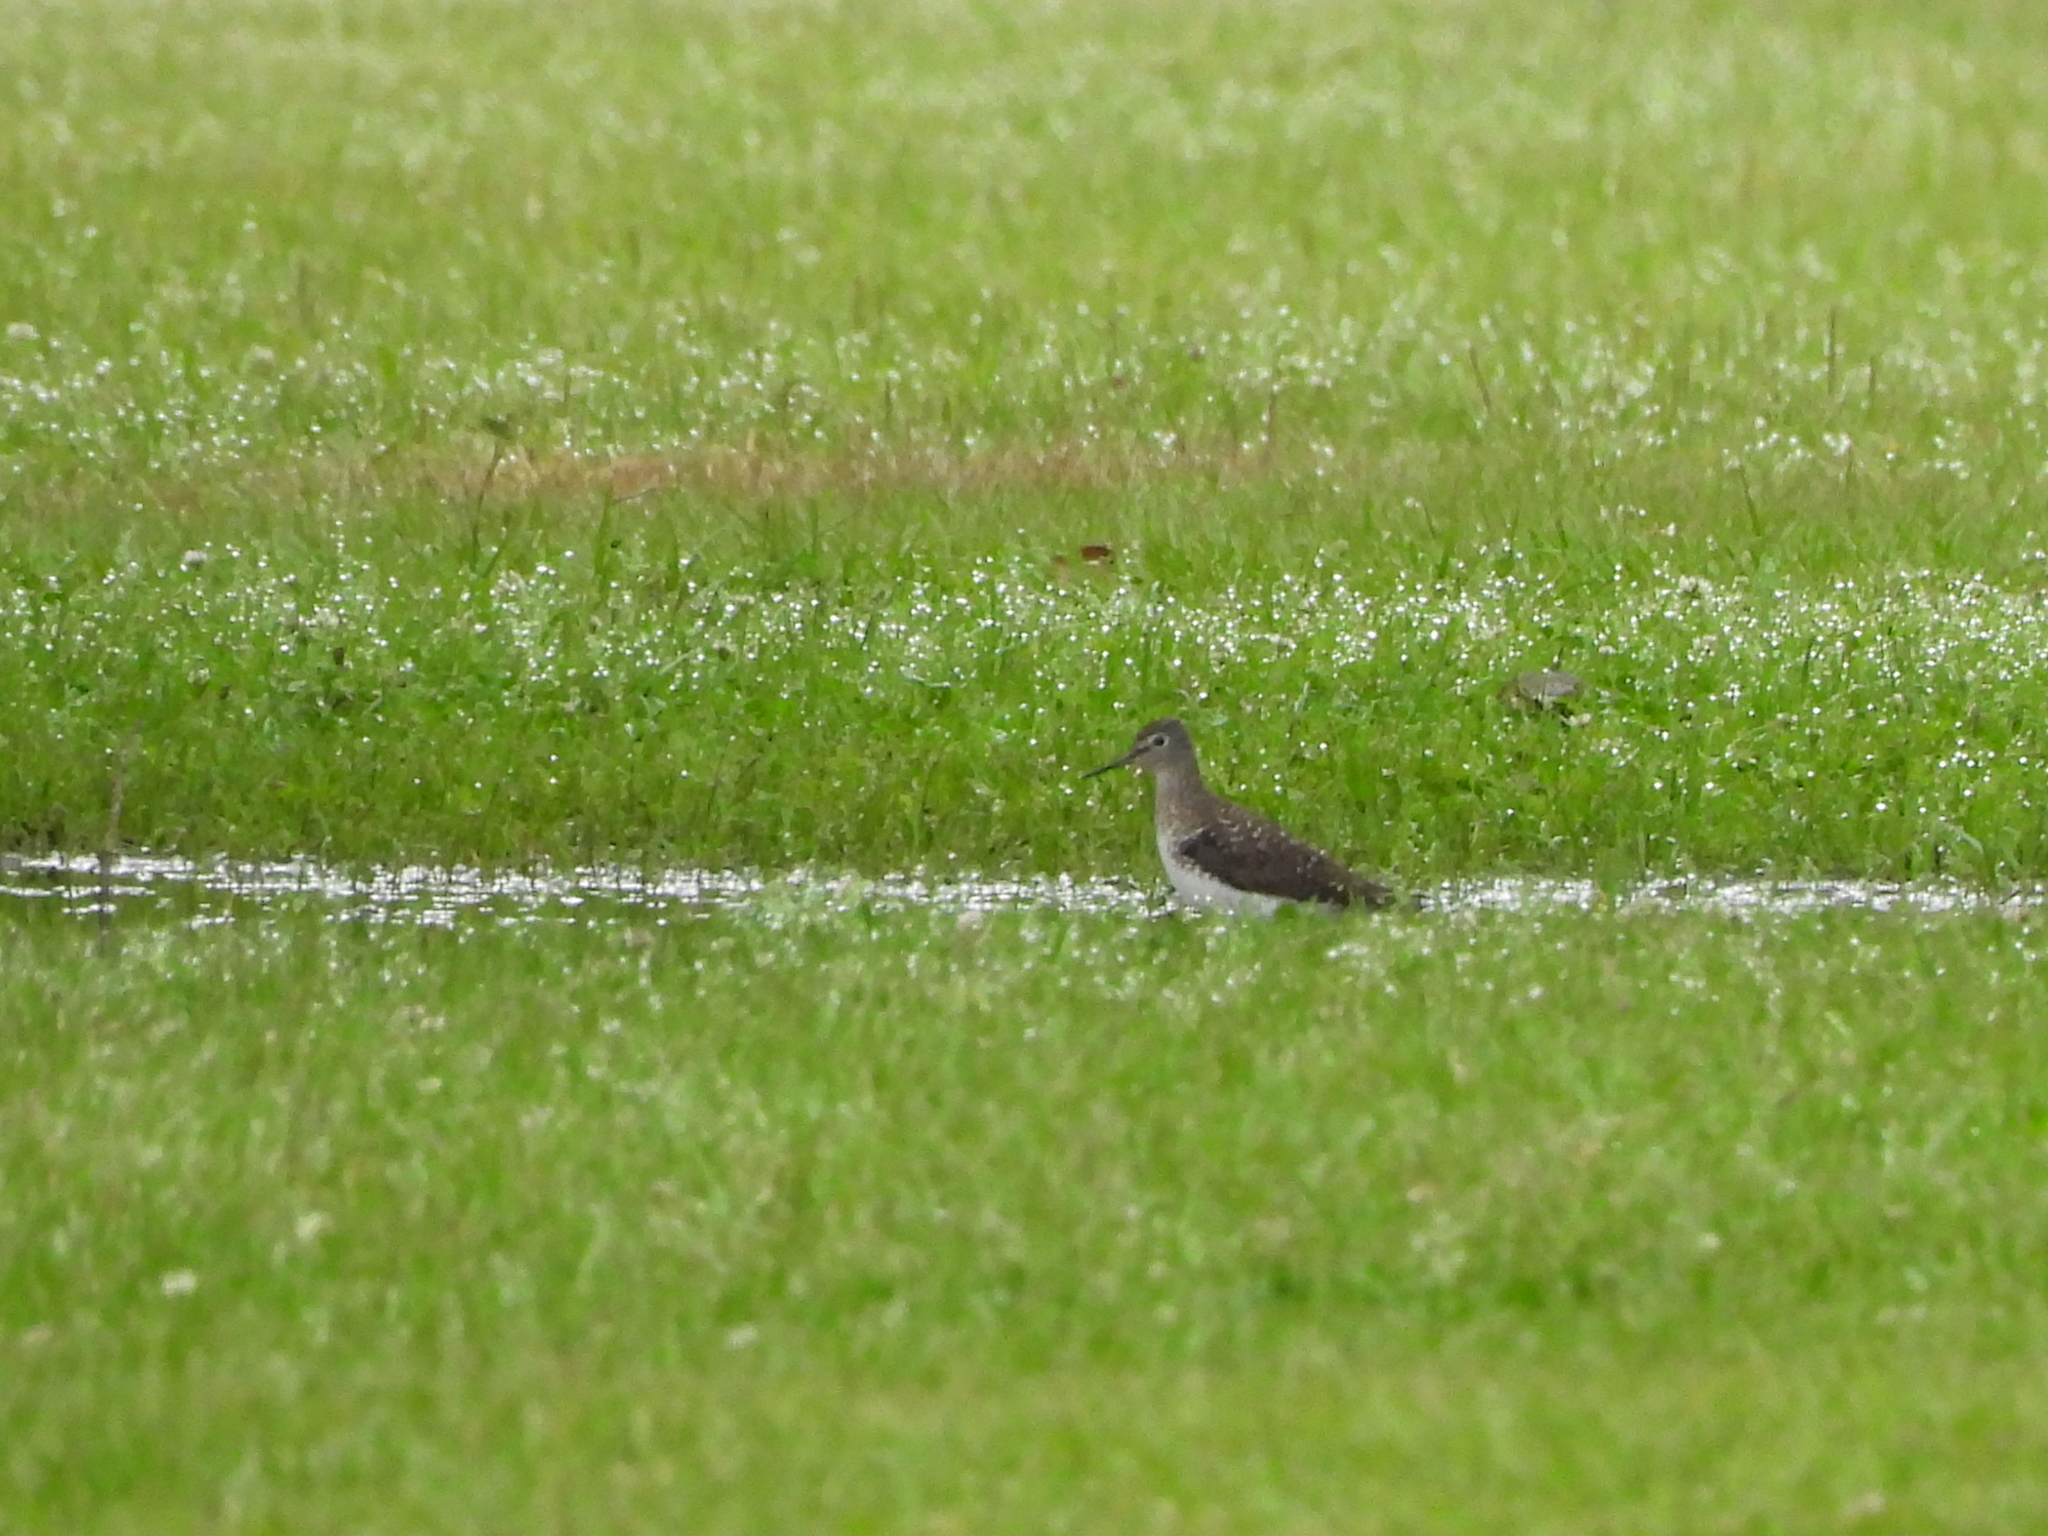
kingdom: Animalia
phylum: Chordata
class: Aves
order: Charadriiformes
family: Scolopacidae
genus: Tringa
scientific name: Tringa solitaria
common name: Solitary sandpiper
